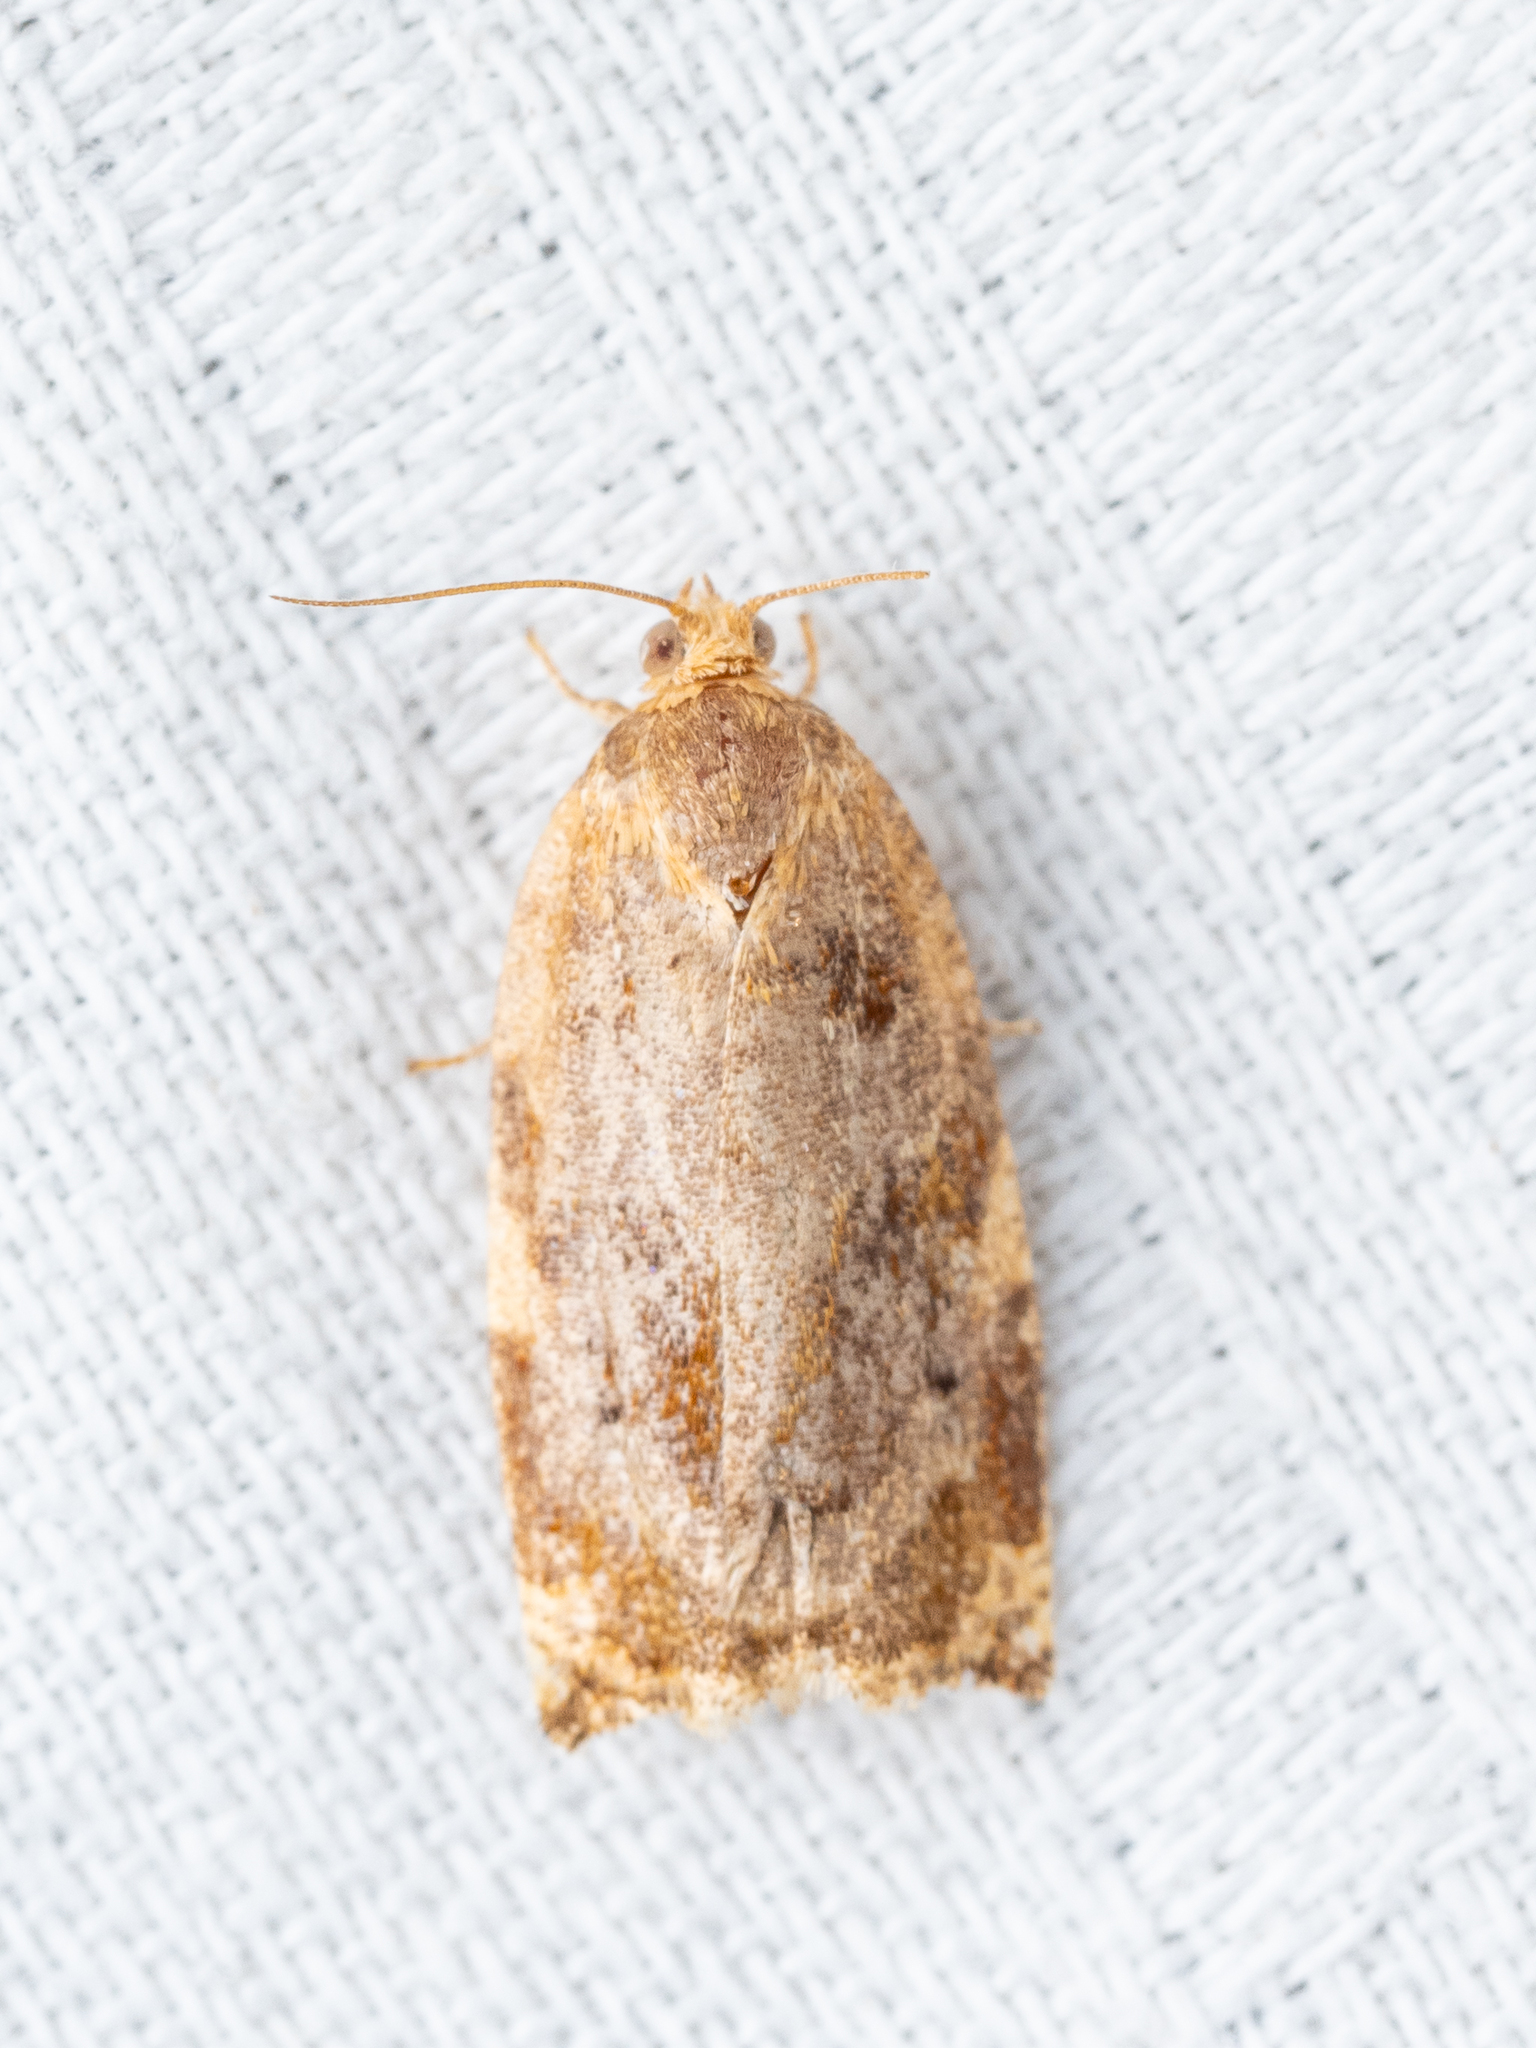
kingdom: Animalia
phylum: Arthropoda
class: Insecta
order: Lepidoptera
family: Tortricidae
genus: Archips
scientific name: Archips xylosteana
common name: Variegated golden tortrix
